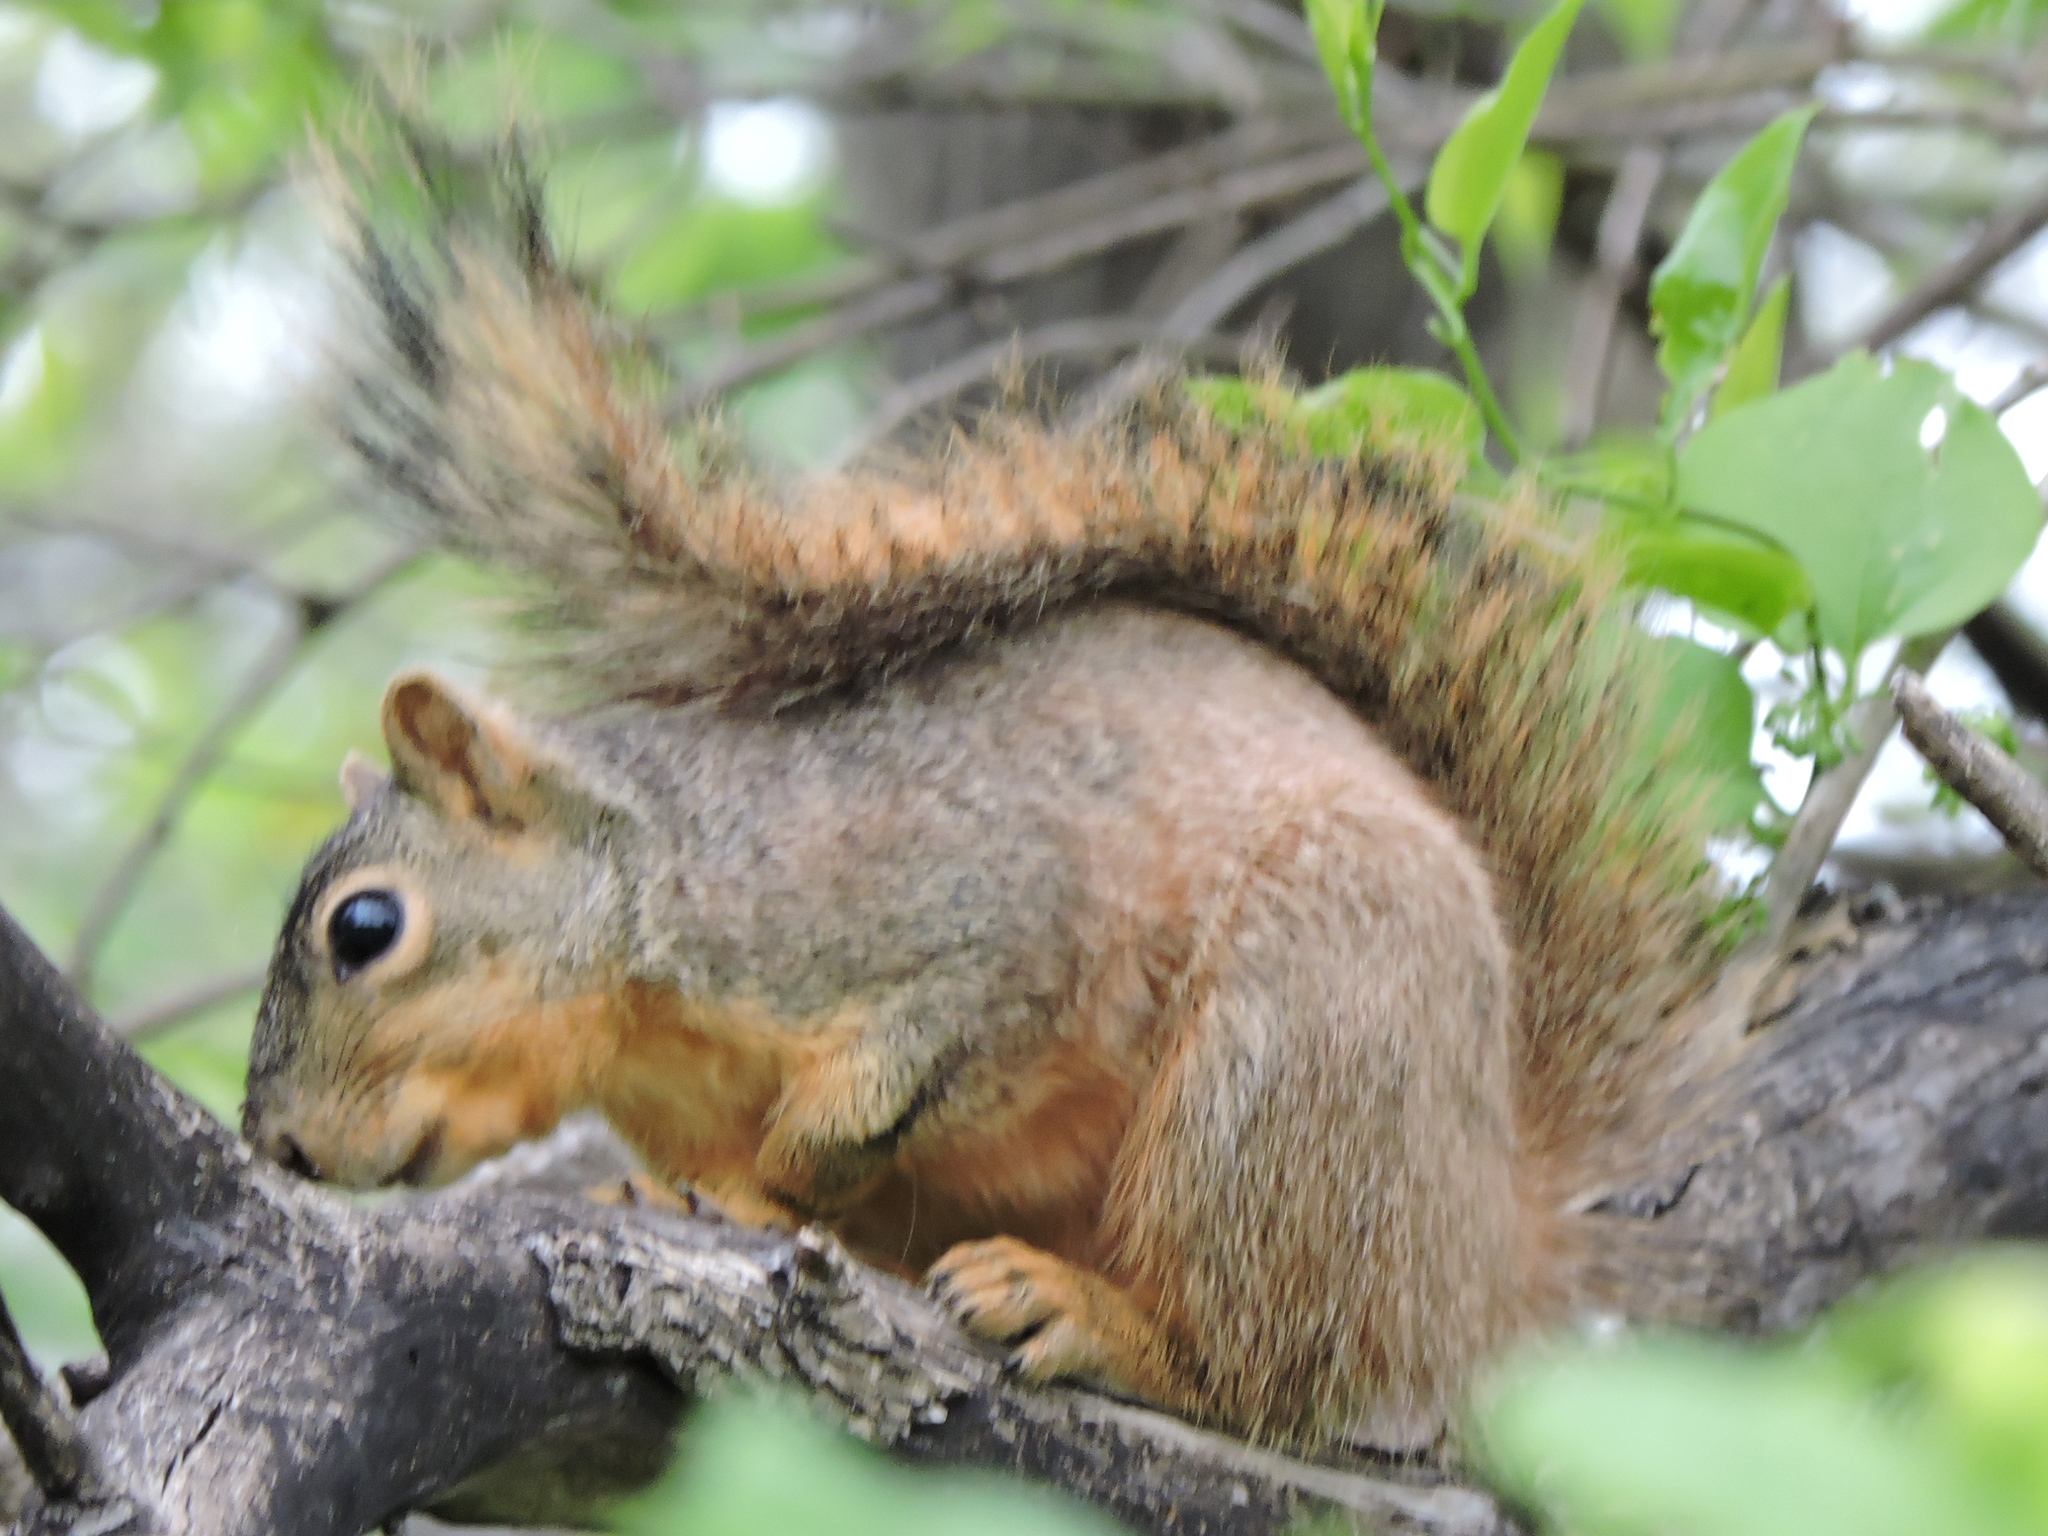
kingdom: Animalia
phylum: Chordata
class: Mammalia
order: Rodentia
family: Sciuridae
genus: Sciurus
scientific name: Sciurus niger
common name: Fox squirrel
